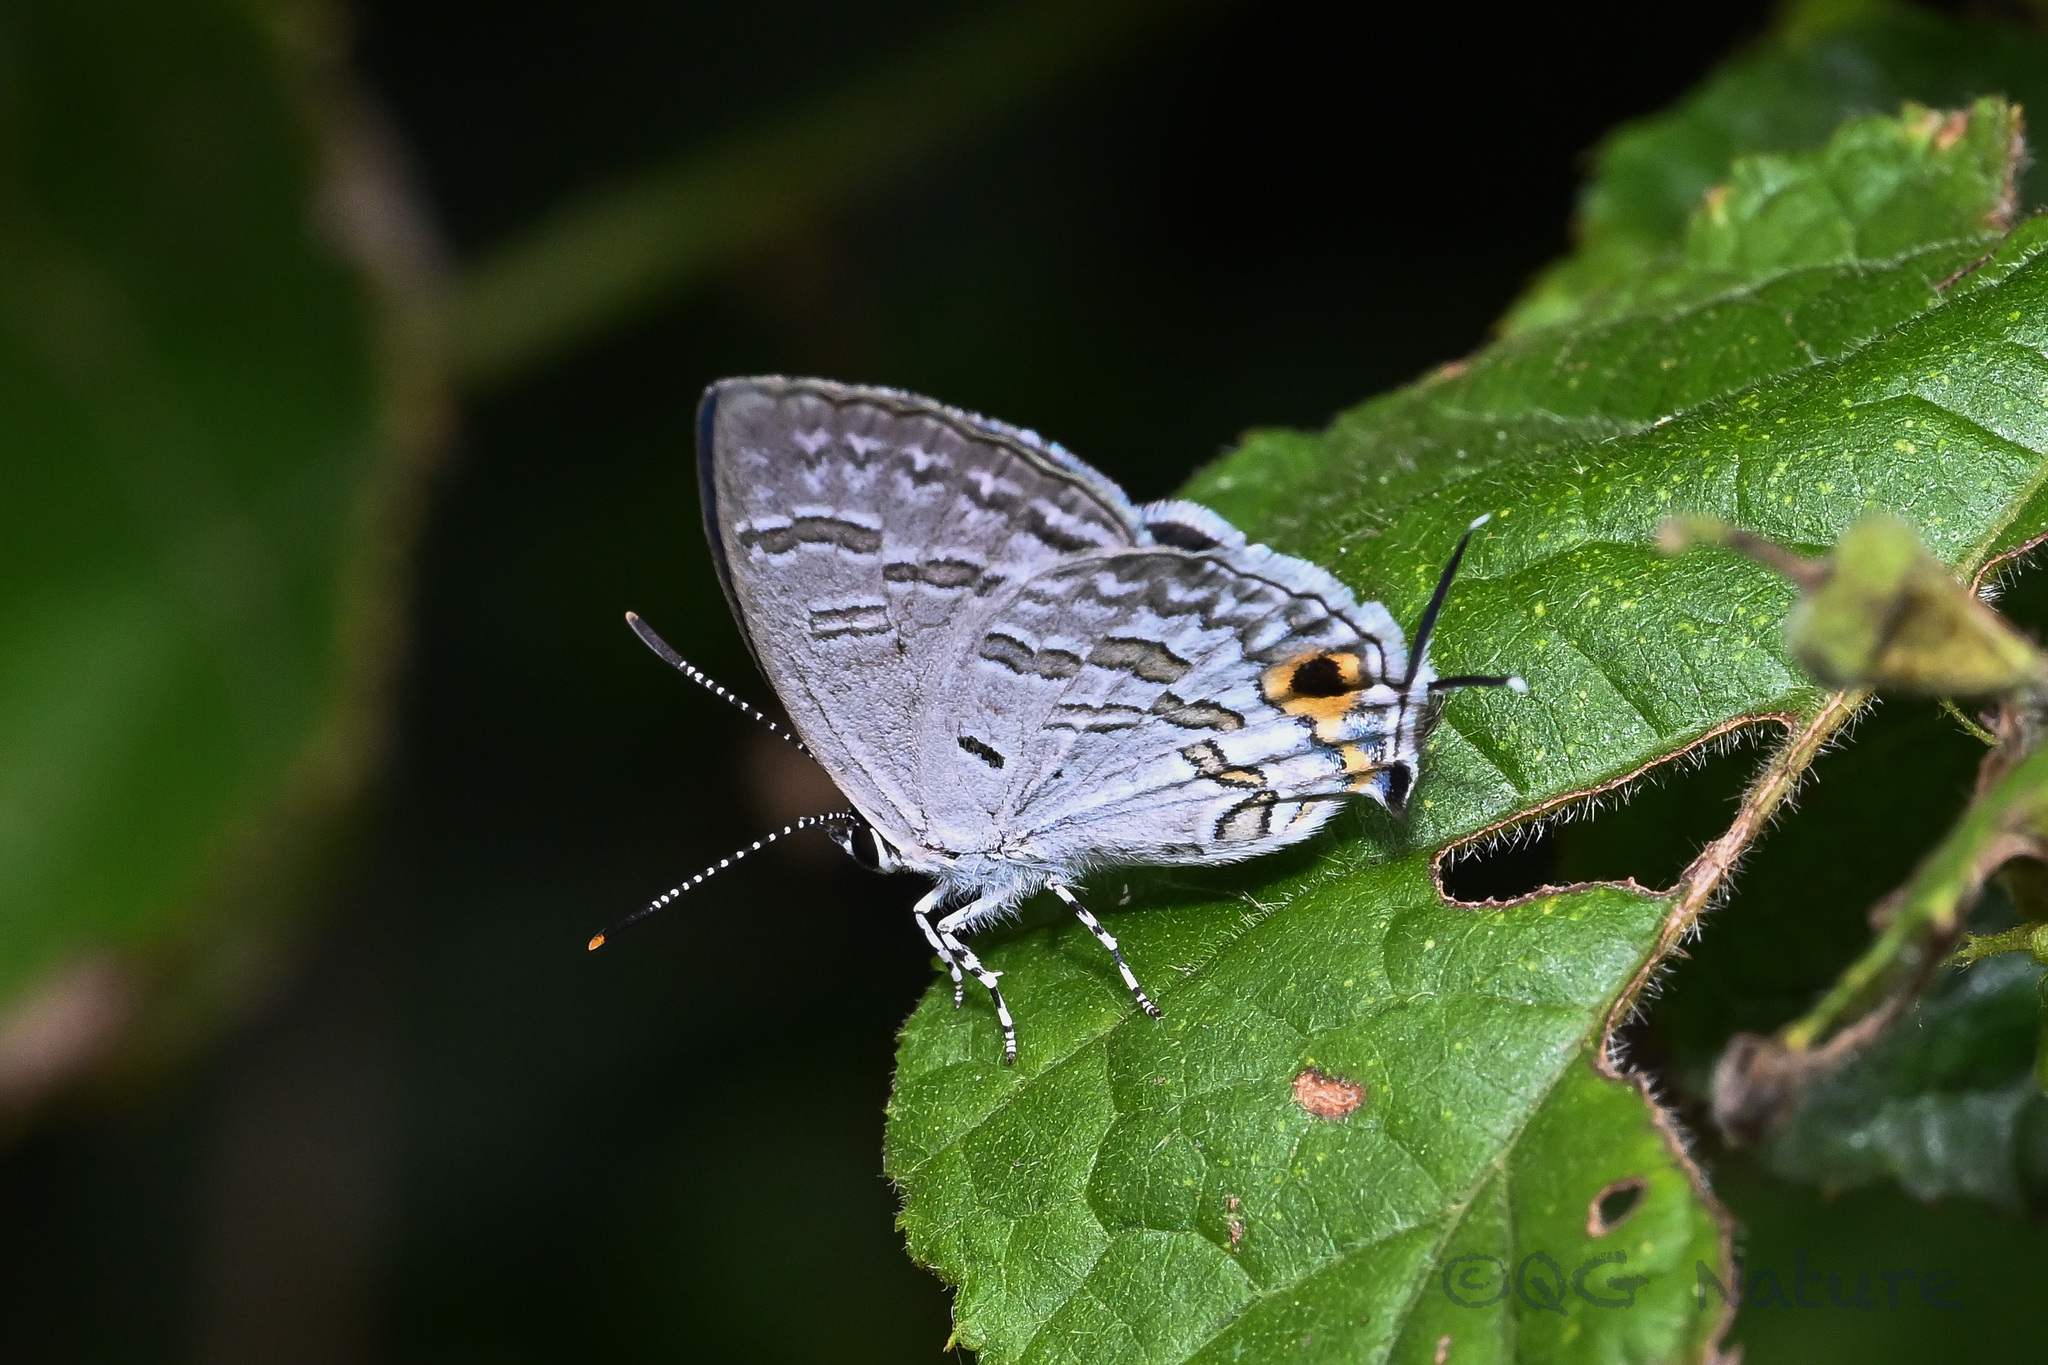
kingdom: Animalia
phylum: Arthropoda
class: Insecta
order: Lepidoptera
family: Lycaenidae
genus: Sinthusa
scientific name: Sinthusa chandrana
